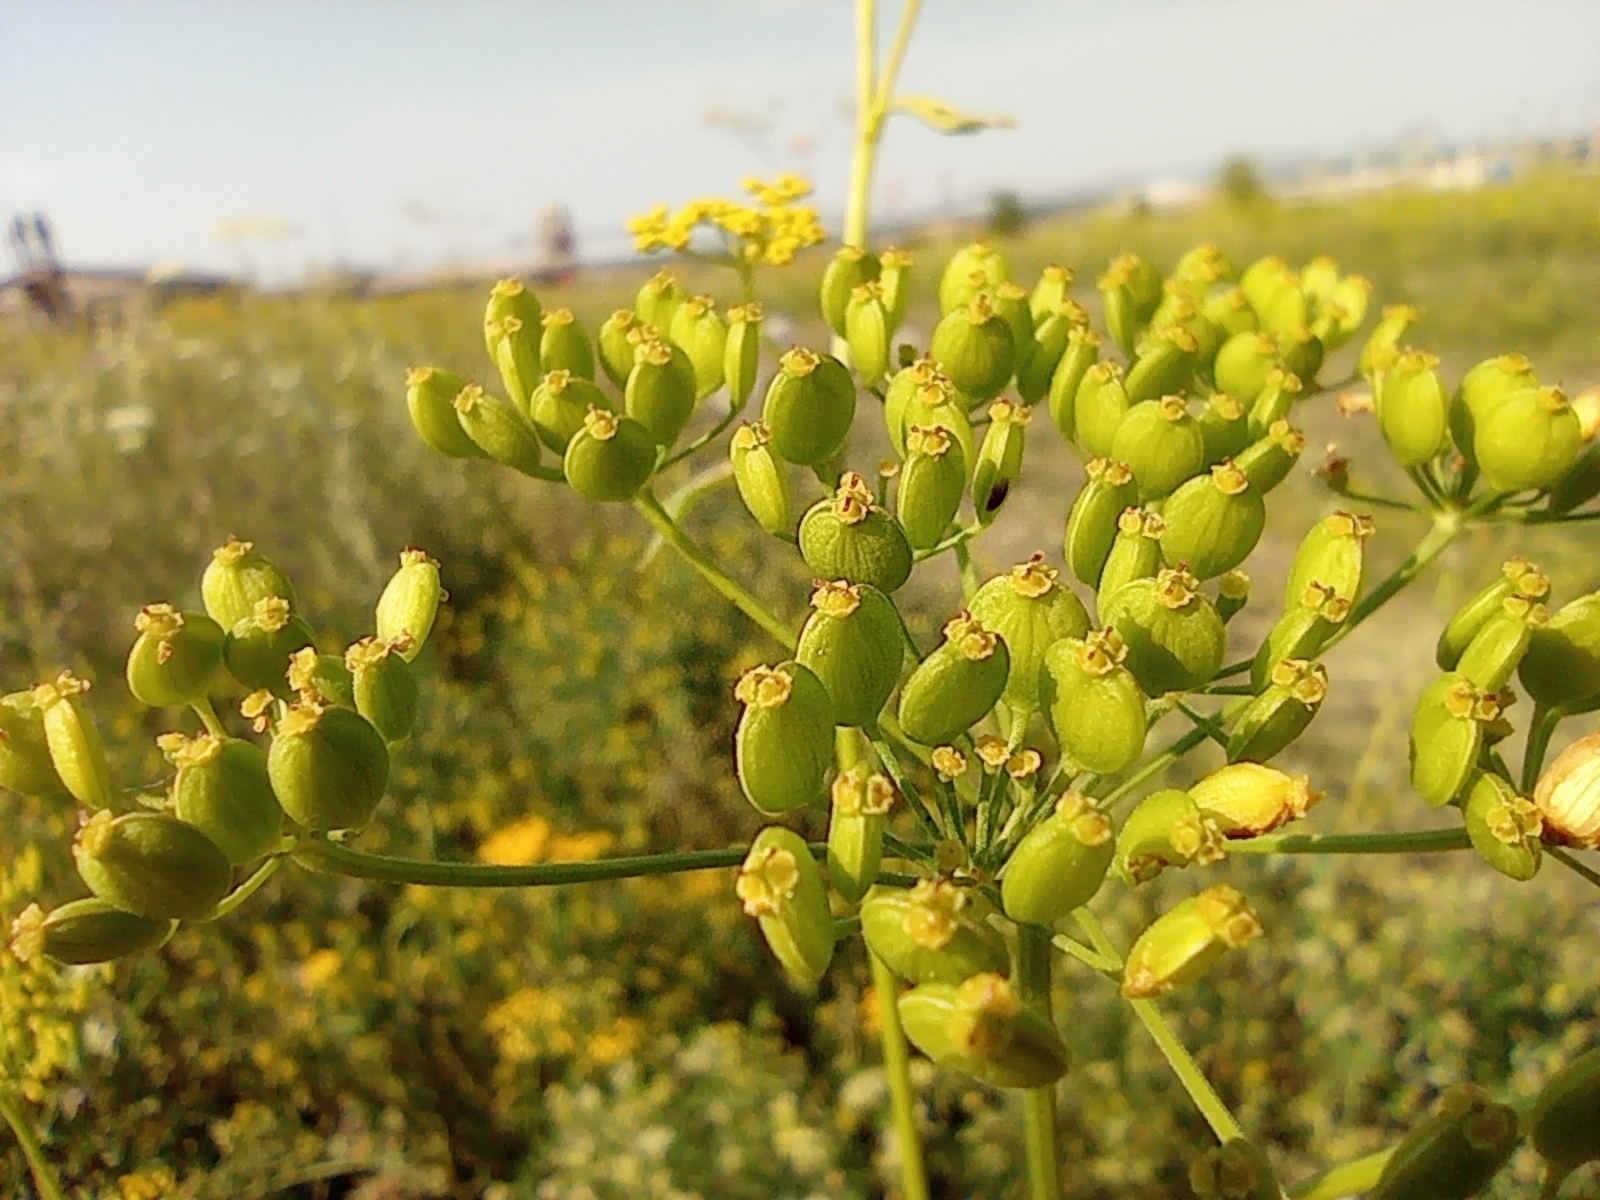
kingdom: Plantae
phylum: Tracheophyta
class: Magnoliopsida
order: Apiales
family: Apiaceae
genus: Pastinaca
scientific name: Pastinaca sativa
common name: Wild parsnip
